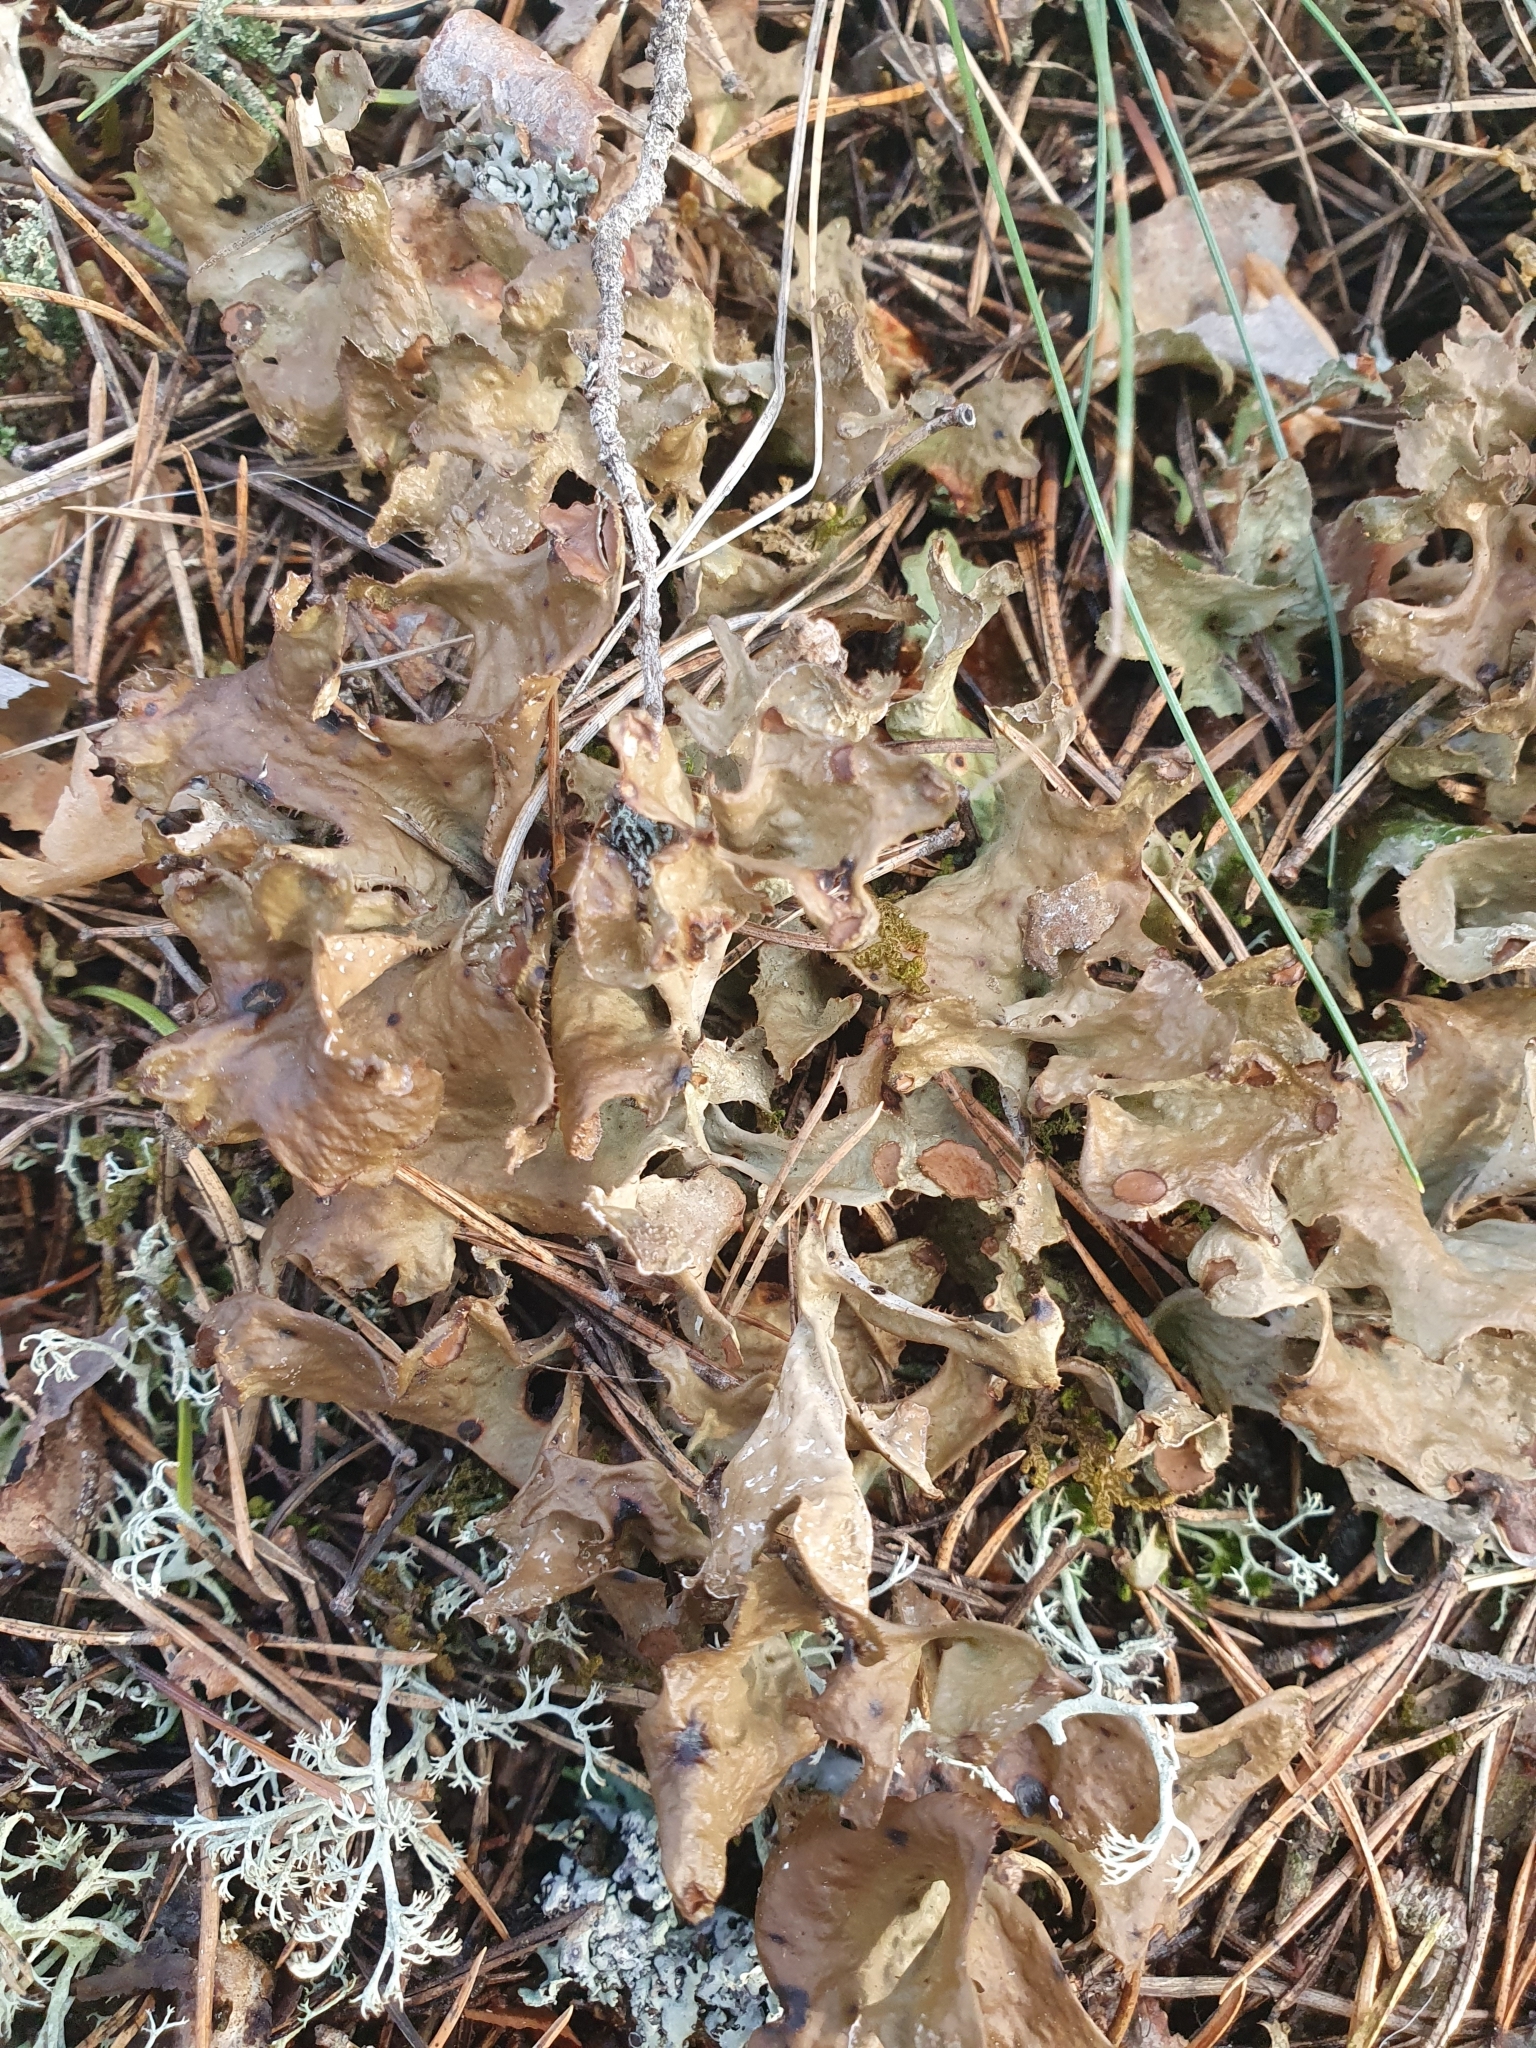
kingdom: Fungi
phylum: Ascomycota
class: Lecanoromycetes
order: Lecanorales
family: Parmeliaceae
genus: Cetraria
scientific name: Cetraria islandica
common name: Iceland lichen
